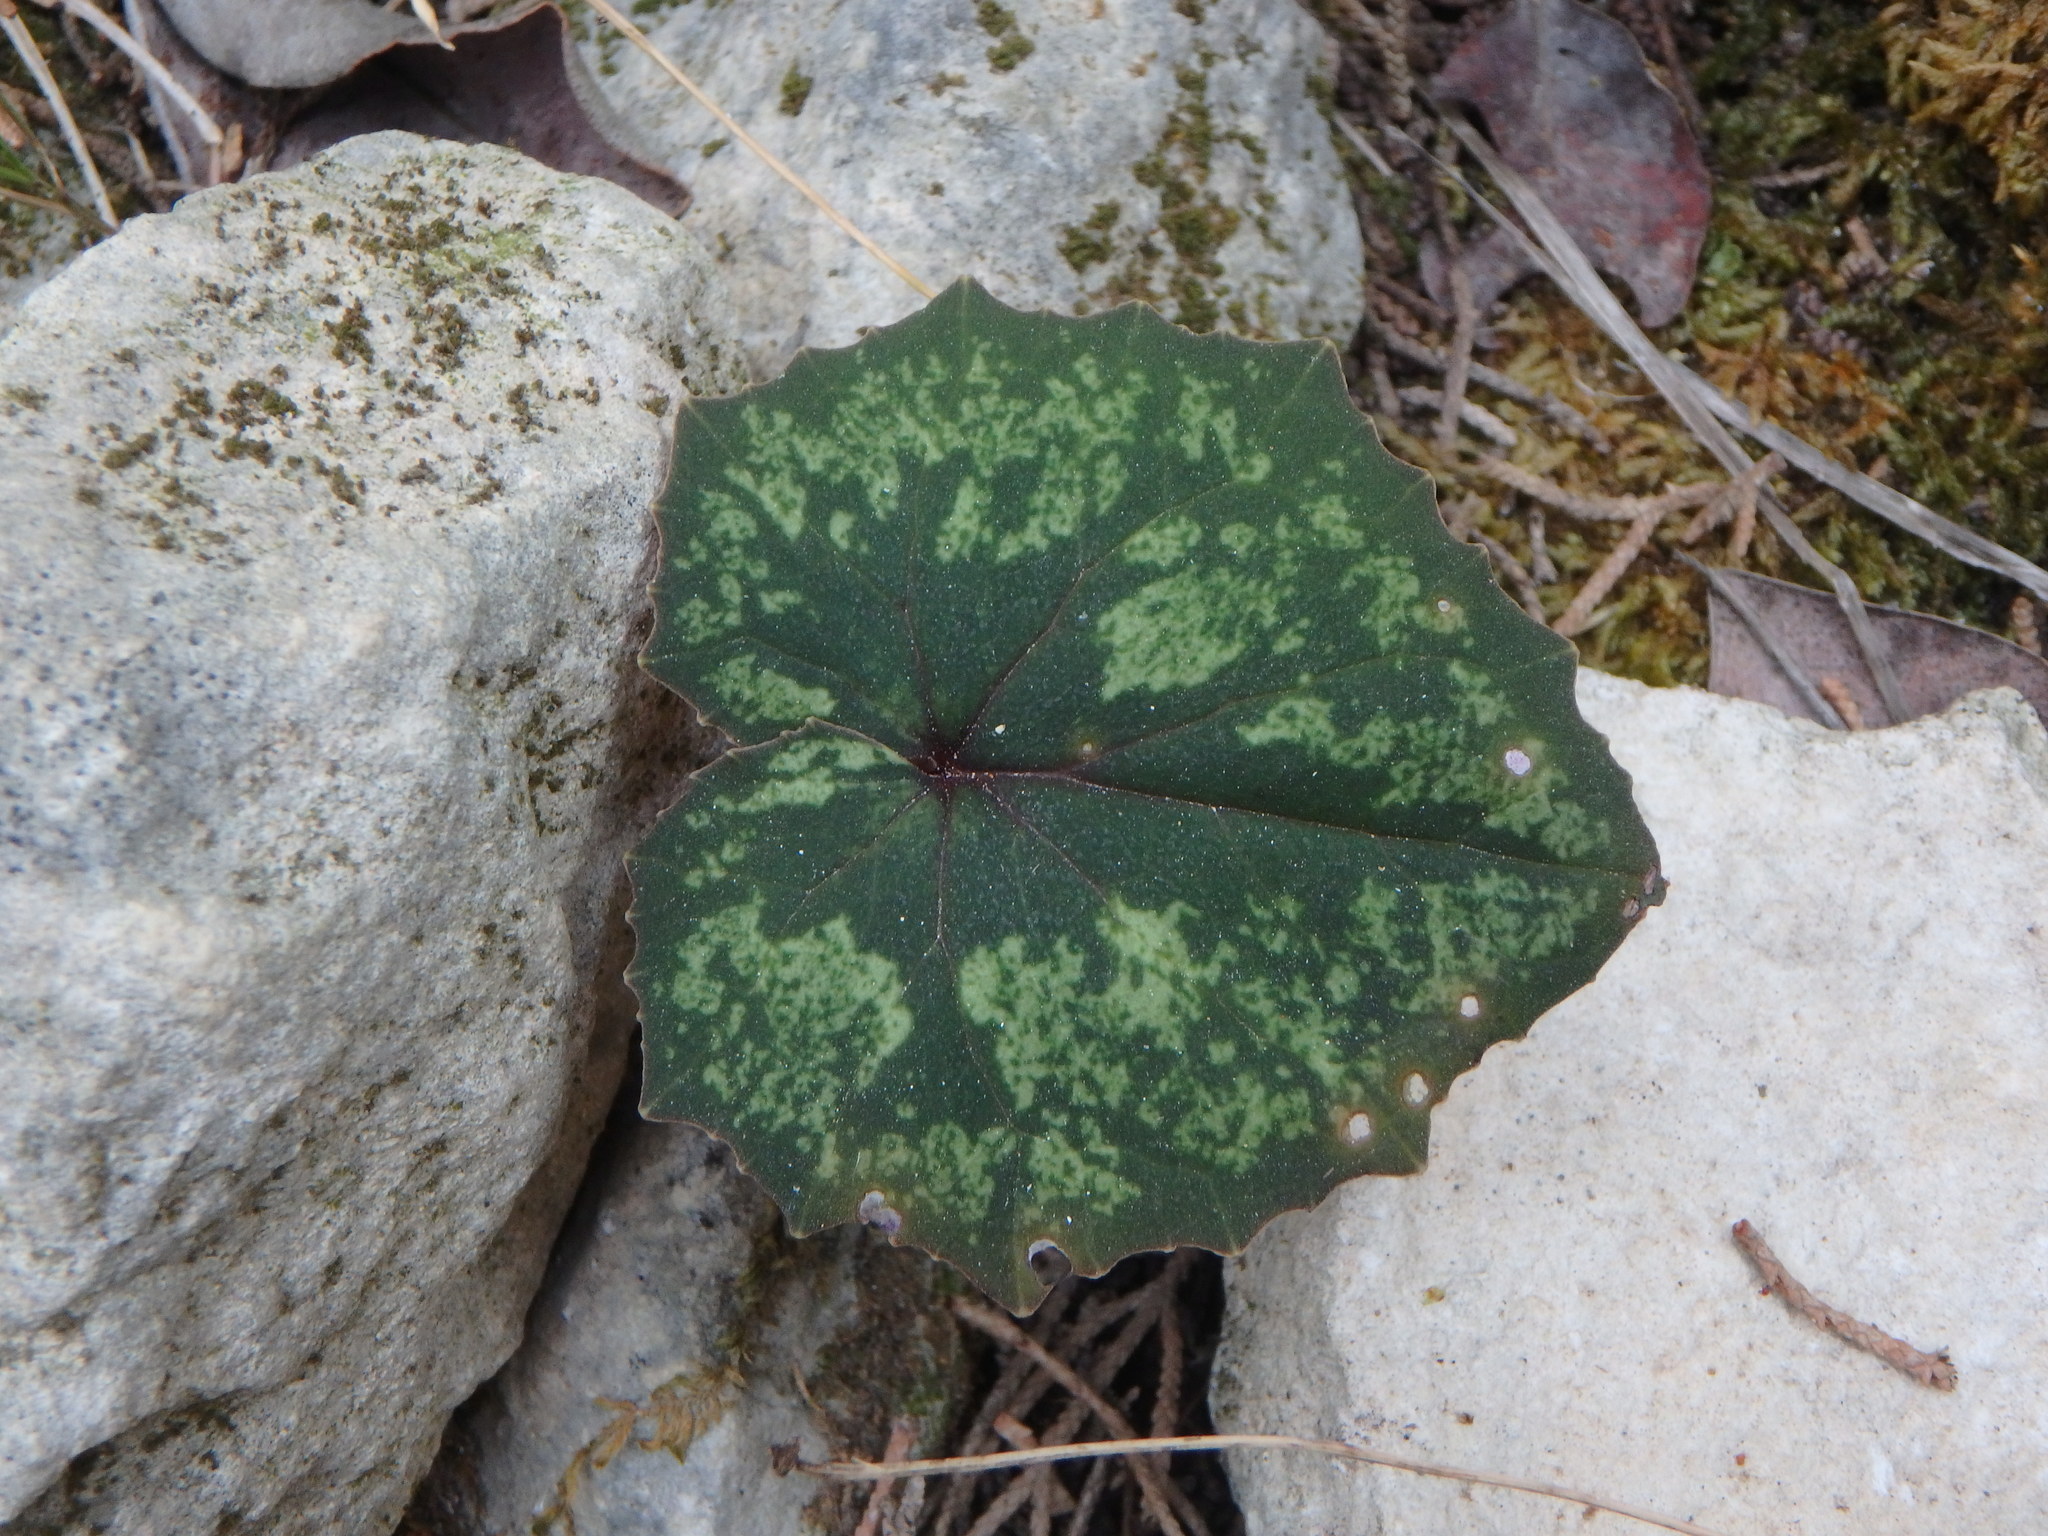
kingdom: Plantae
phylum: Tracheophyta
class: Magnoliopsida
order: Ericales
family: Primulaceae
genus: Cyclamen
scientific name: Cyclamen cyprium
